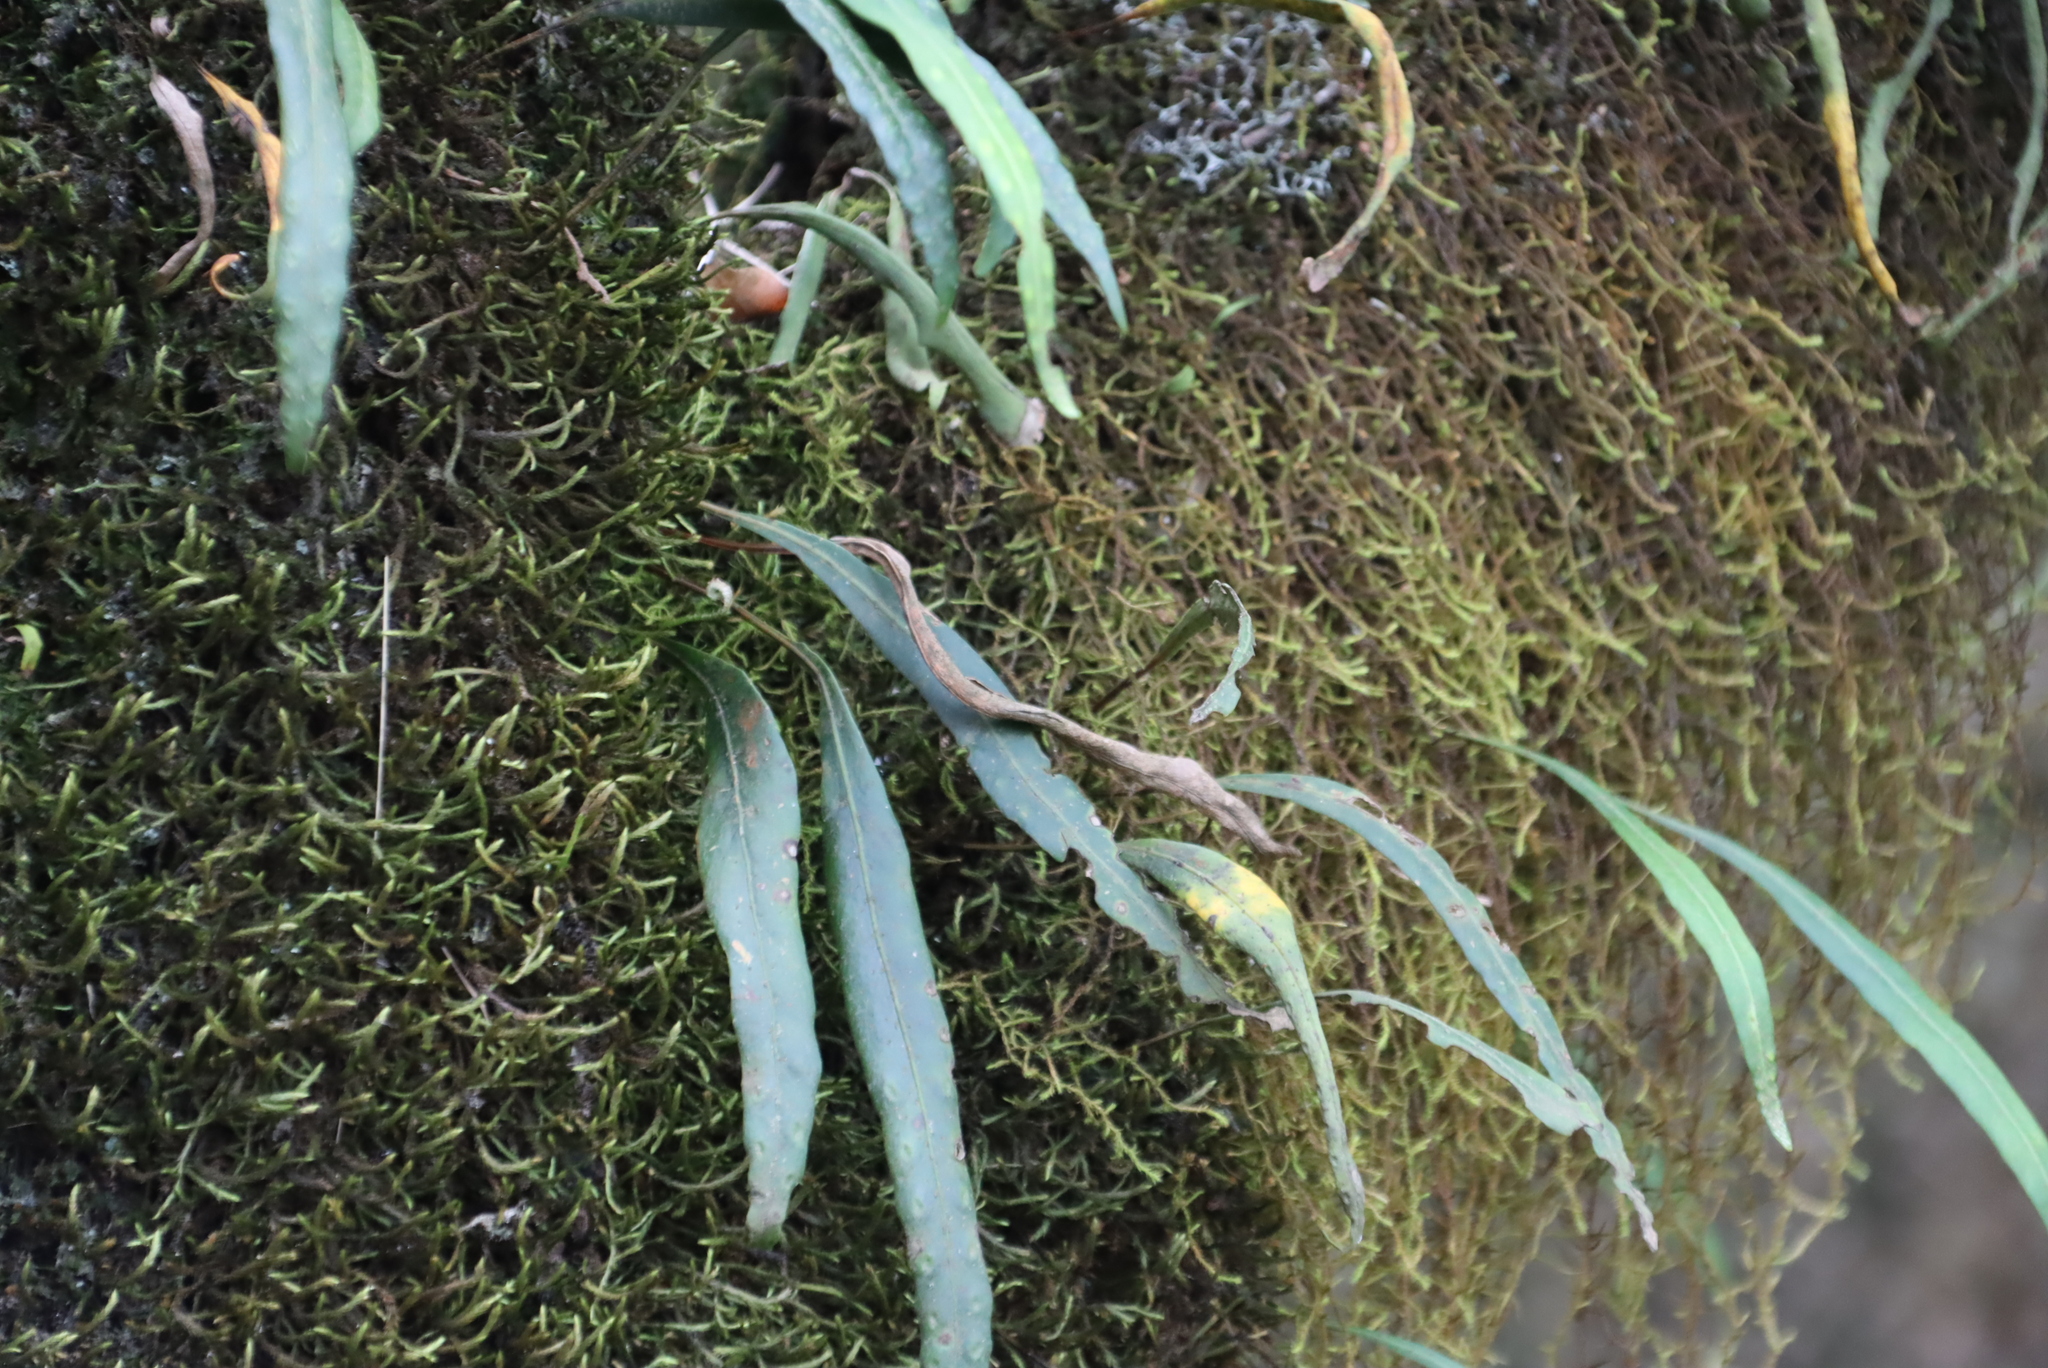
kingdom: Plantae
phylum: Tracheophyta
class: Polypodiopsida
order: Polypodiales
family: Polypodiaceae
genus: Pleopeltis
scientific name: Pleopeltis macrocarpa
